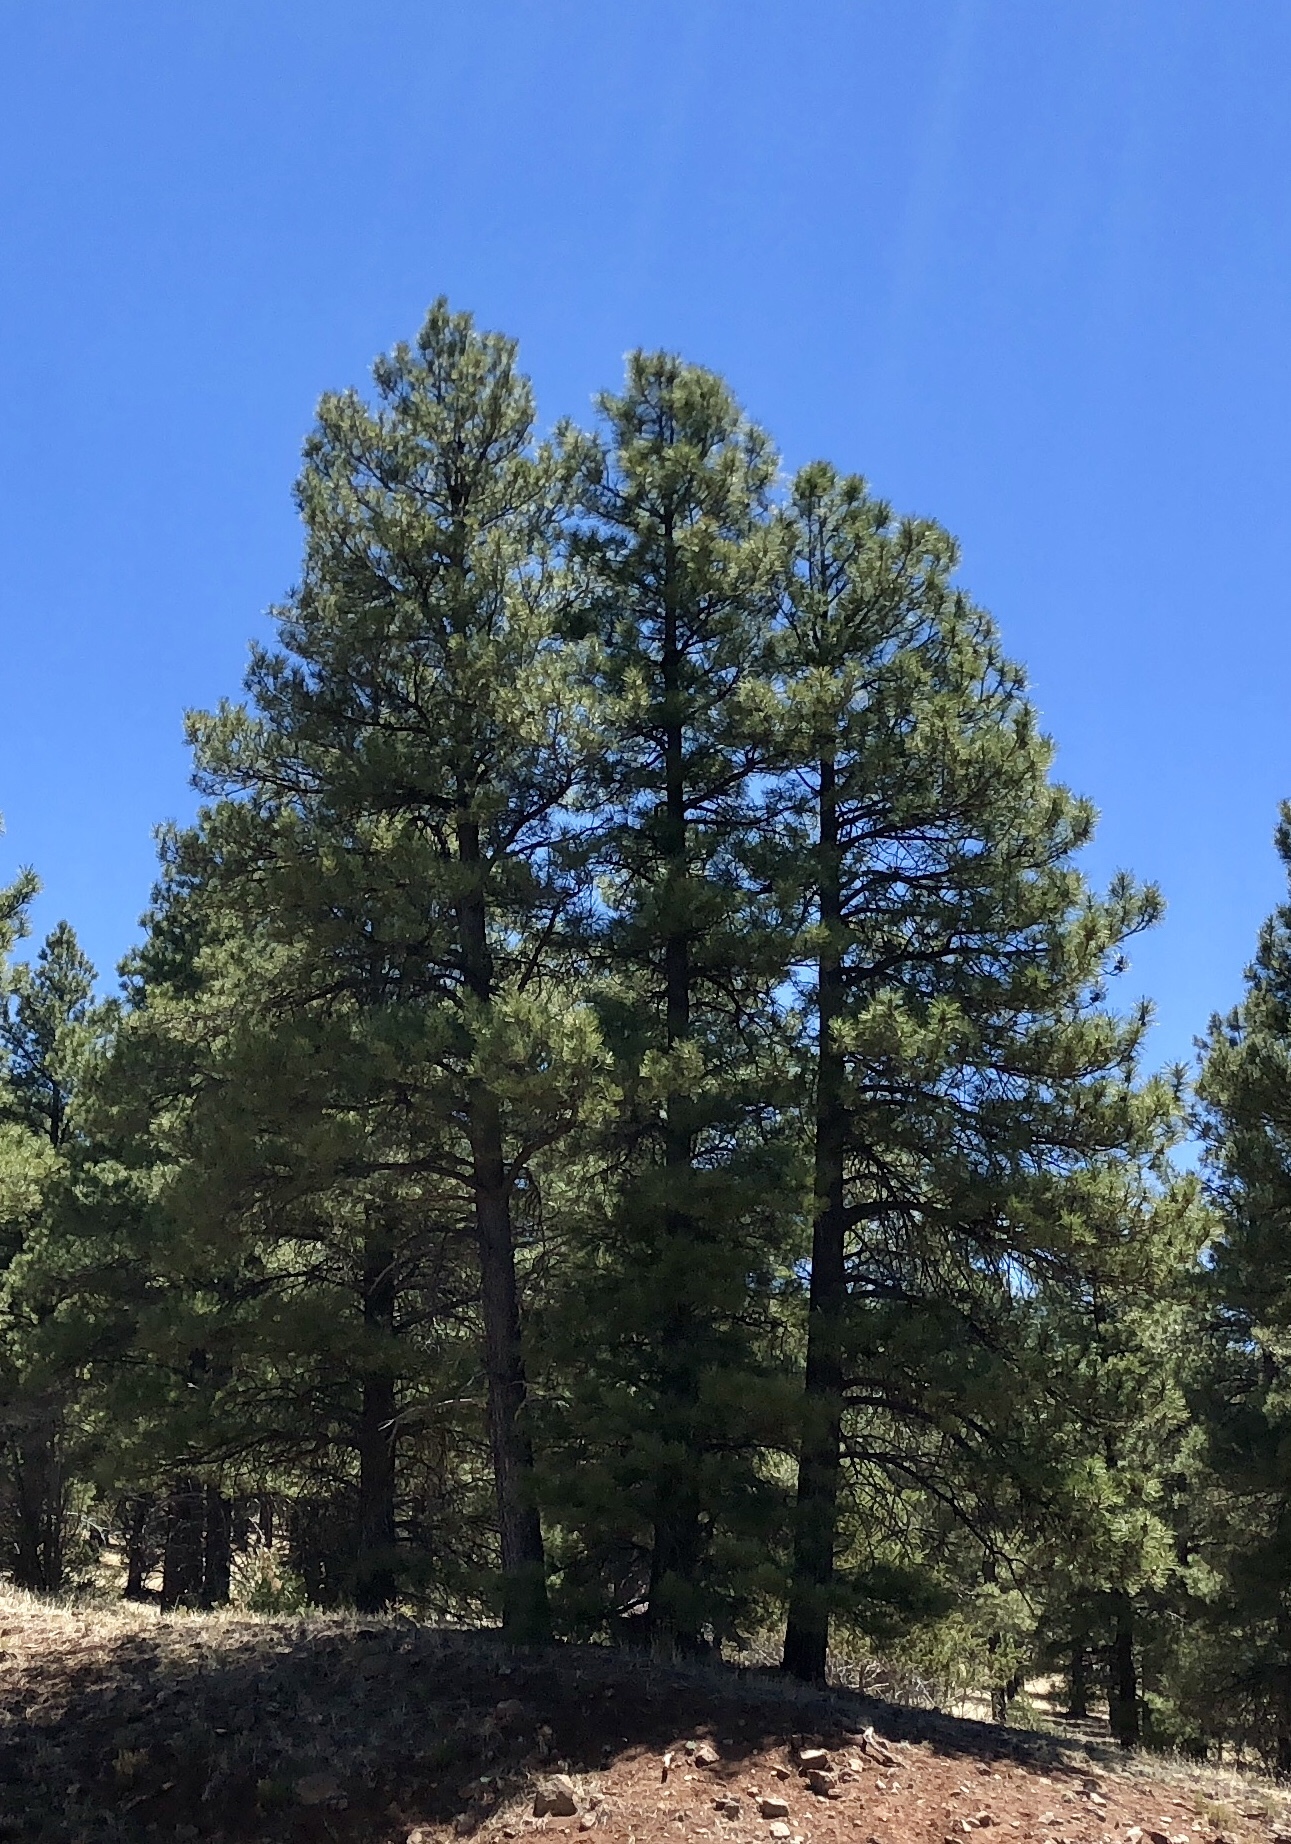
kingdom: Plantae
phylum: Tracheophyta
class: Pinopsida
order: Pinales
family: Pinaceae
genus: Pinus
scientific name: Pinus ponderosa
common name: Western yellow-pine
